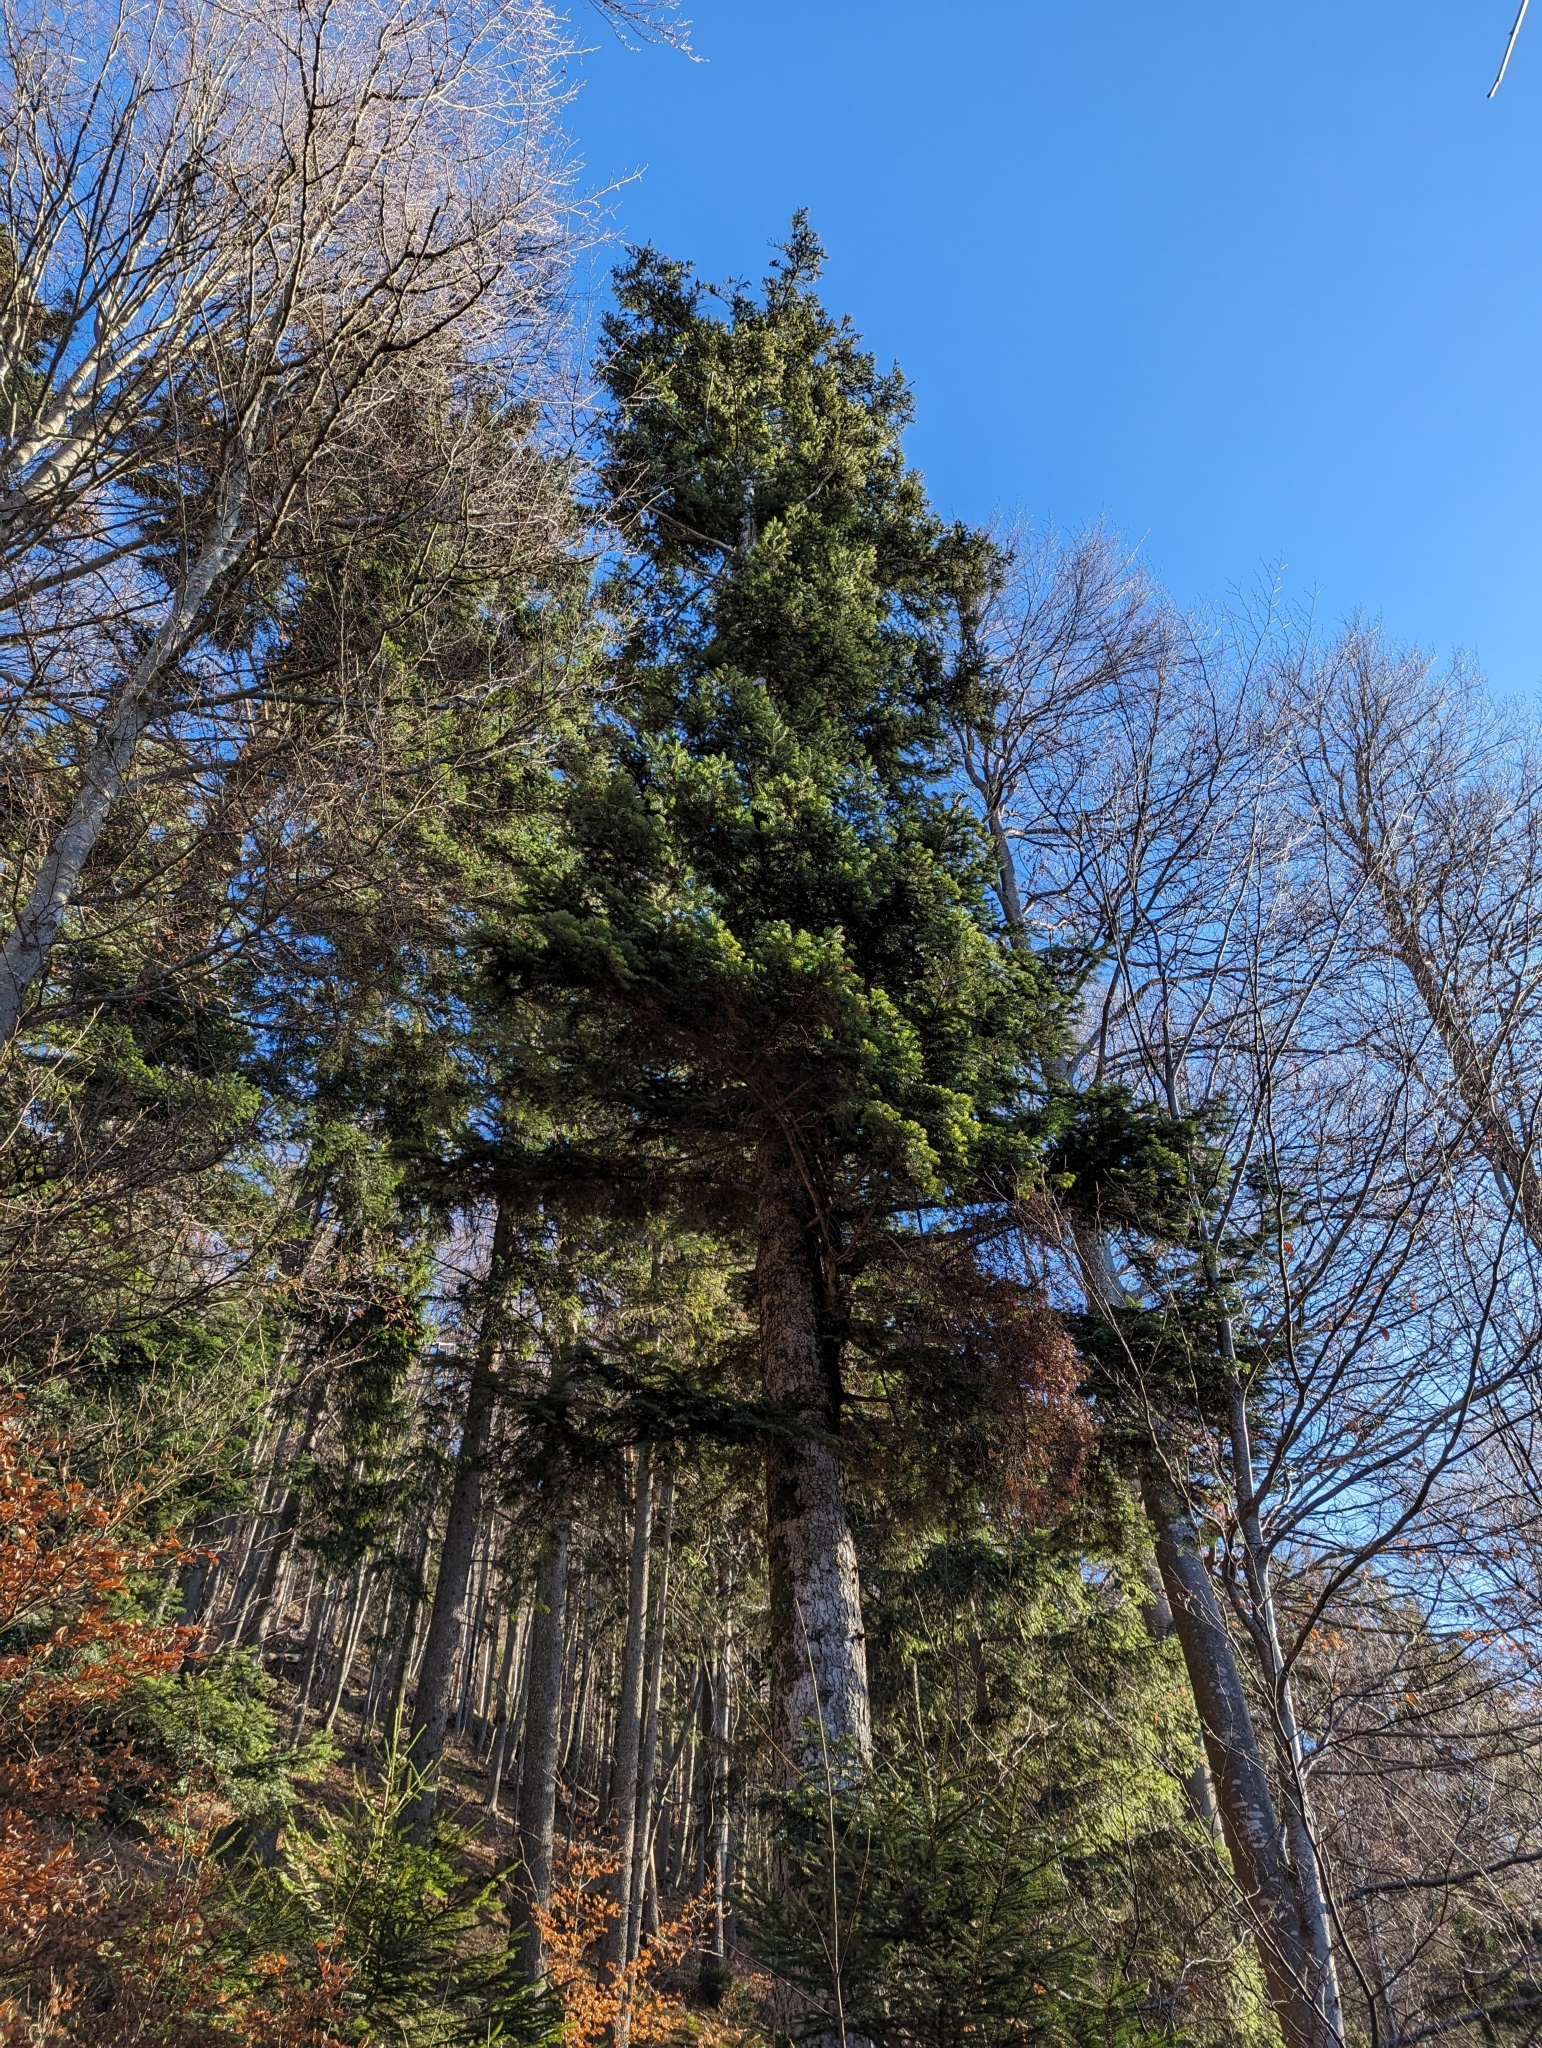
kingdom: Plantae
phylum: Tracheophyta
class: Pinopsida
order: Pinales
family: Pinaceae
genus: Abies
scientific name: Abies alba
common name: Silver fir
